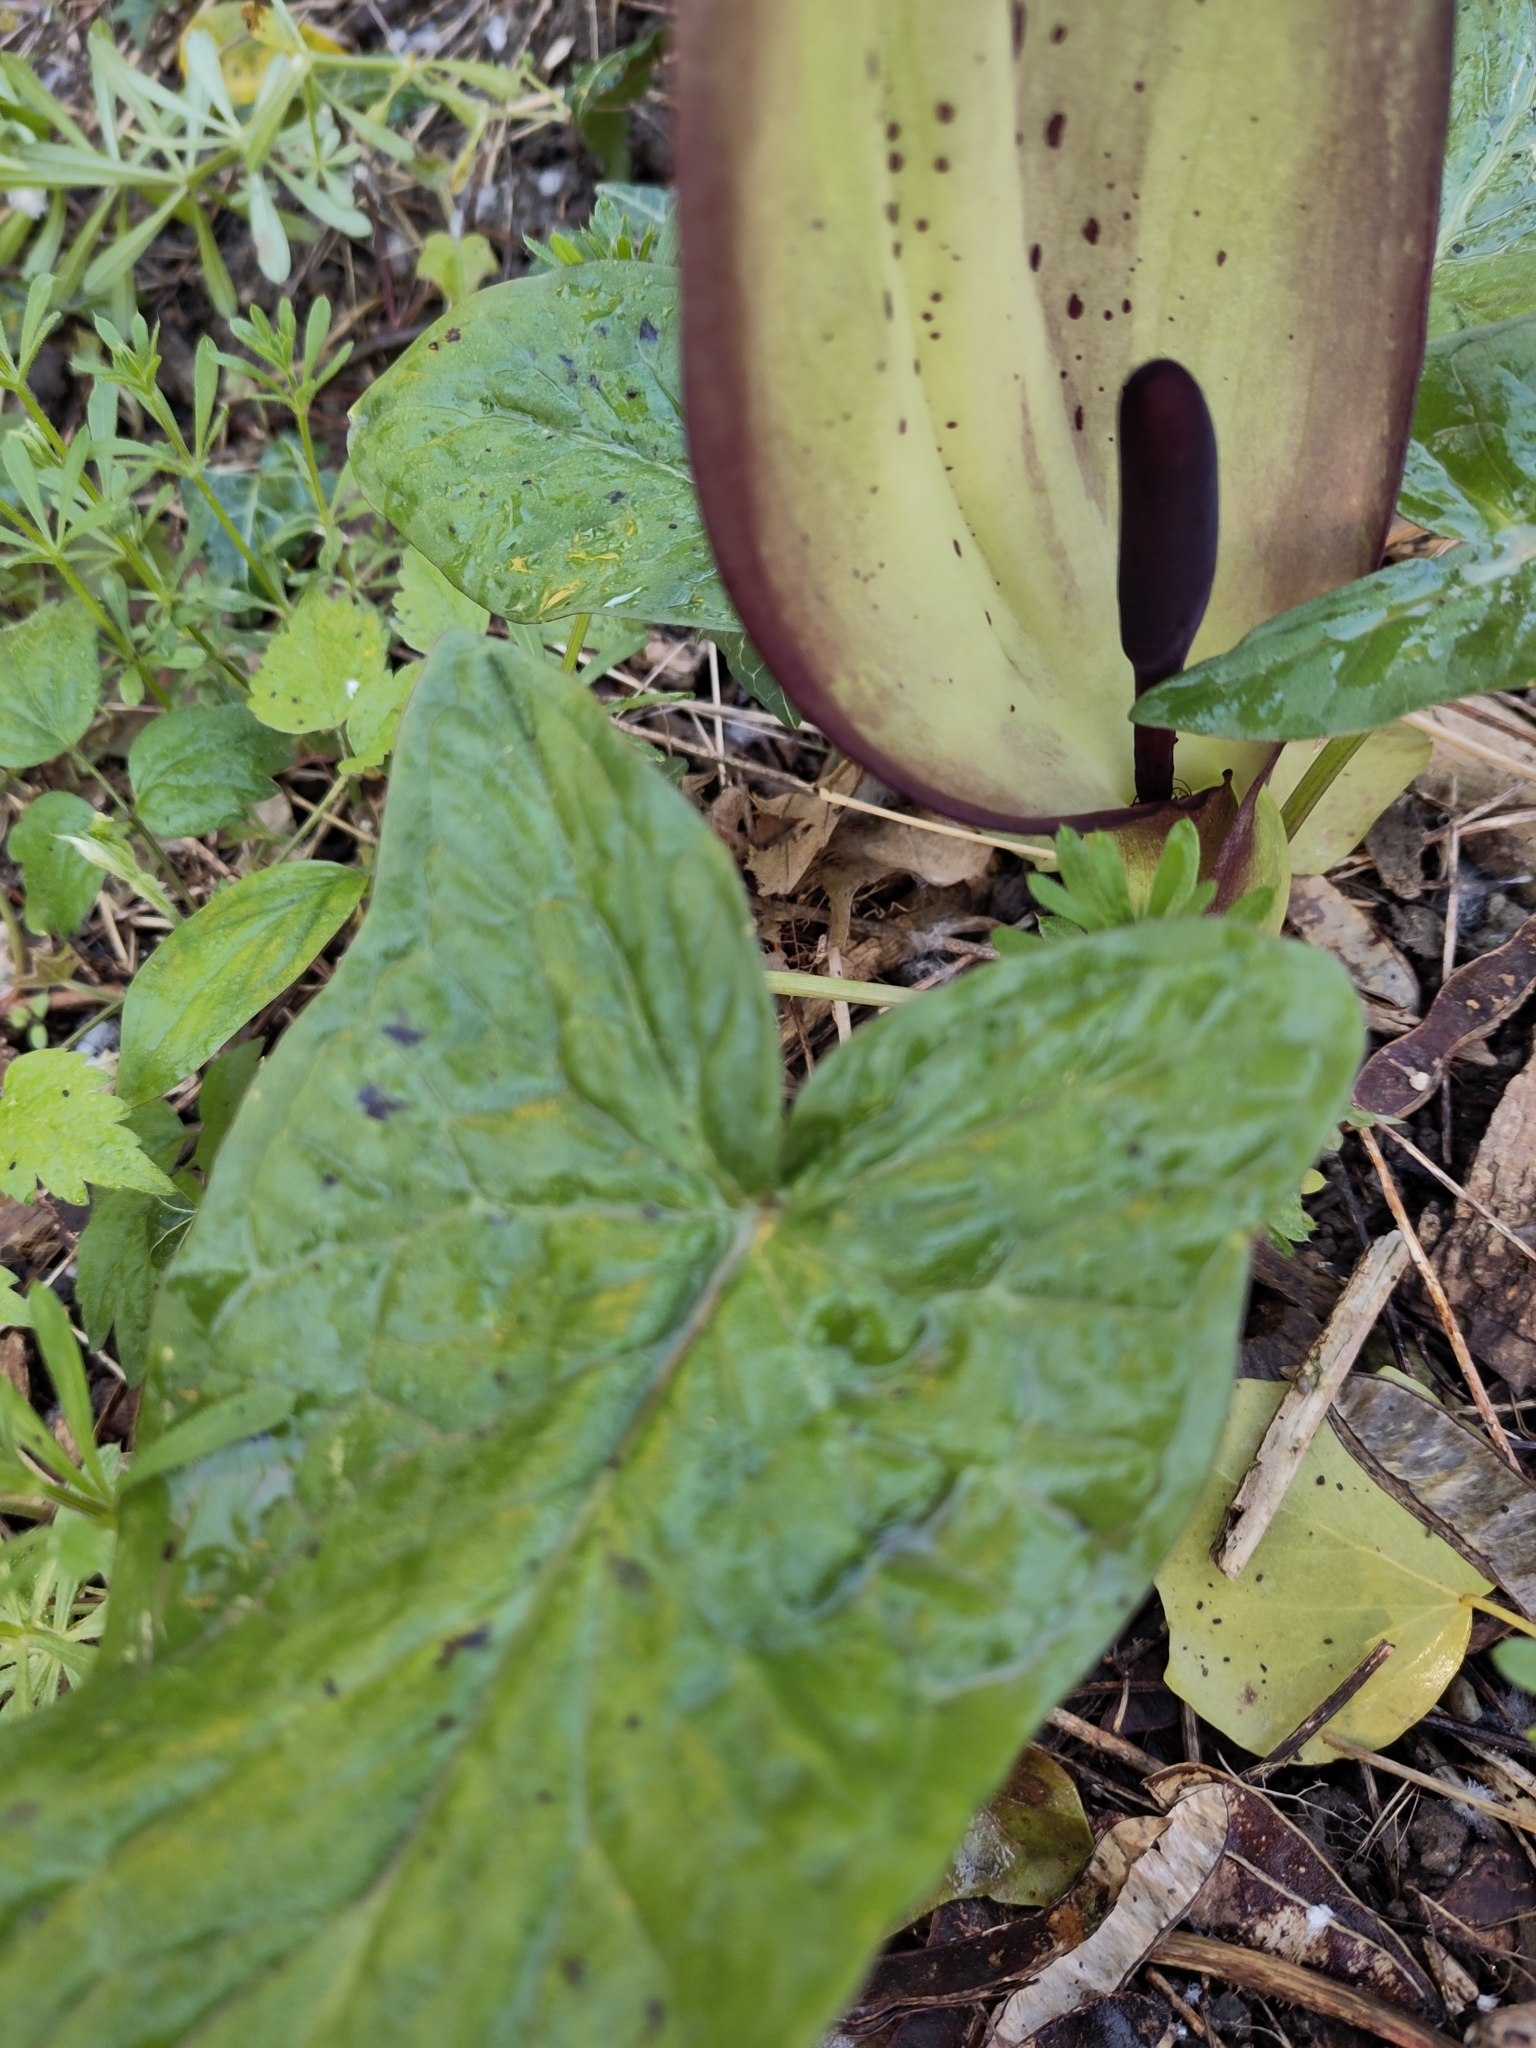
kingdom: Plantae
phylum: Tracheophyta
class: Liliopsida
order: Alismatales
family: Araceae
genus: Arum
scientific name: Arum maculatum
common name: Lords-and-ladies
